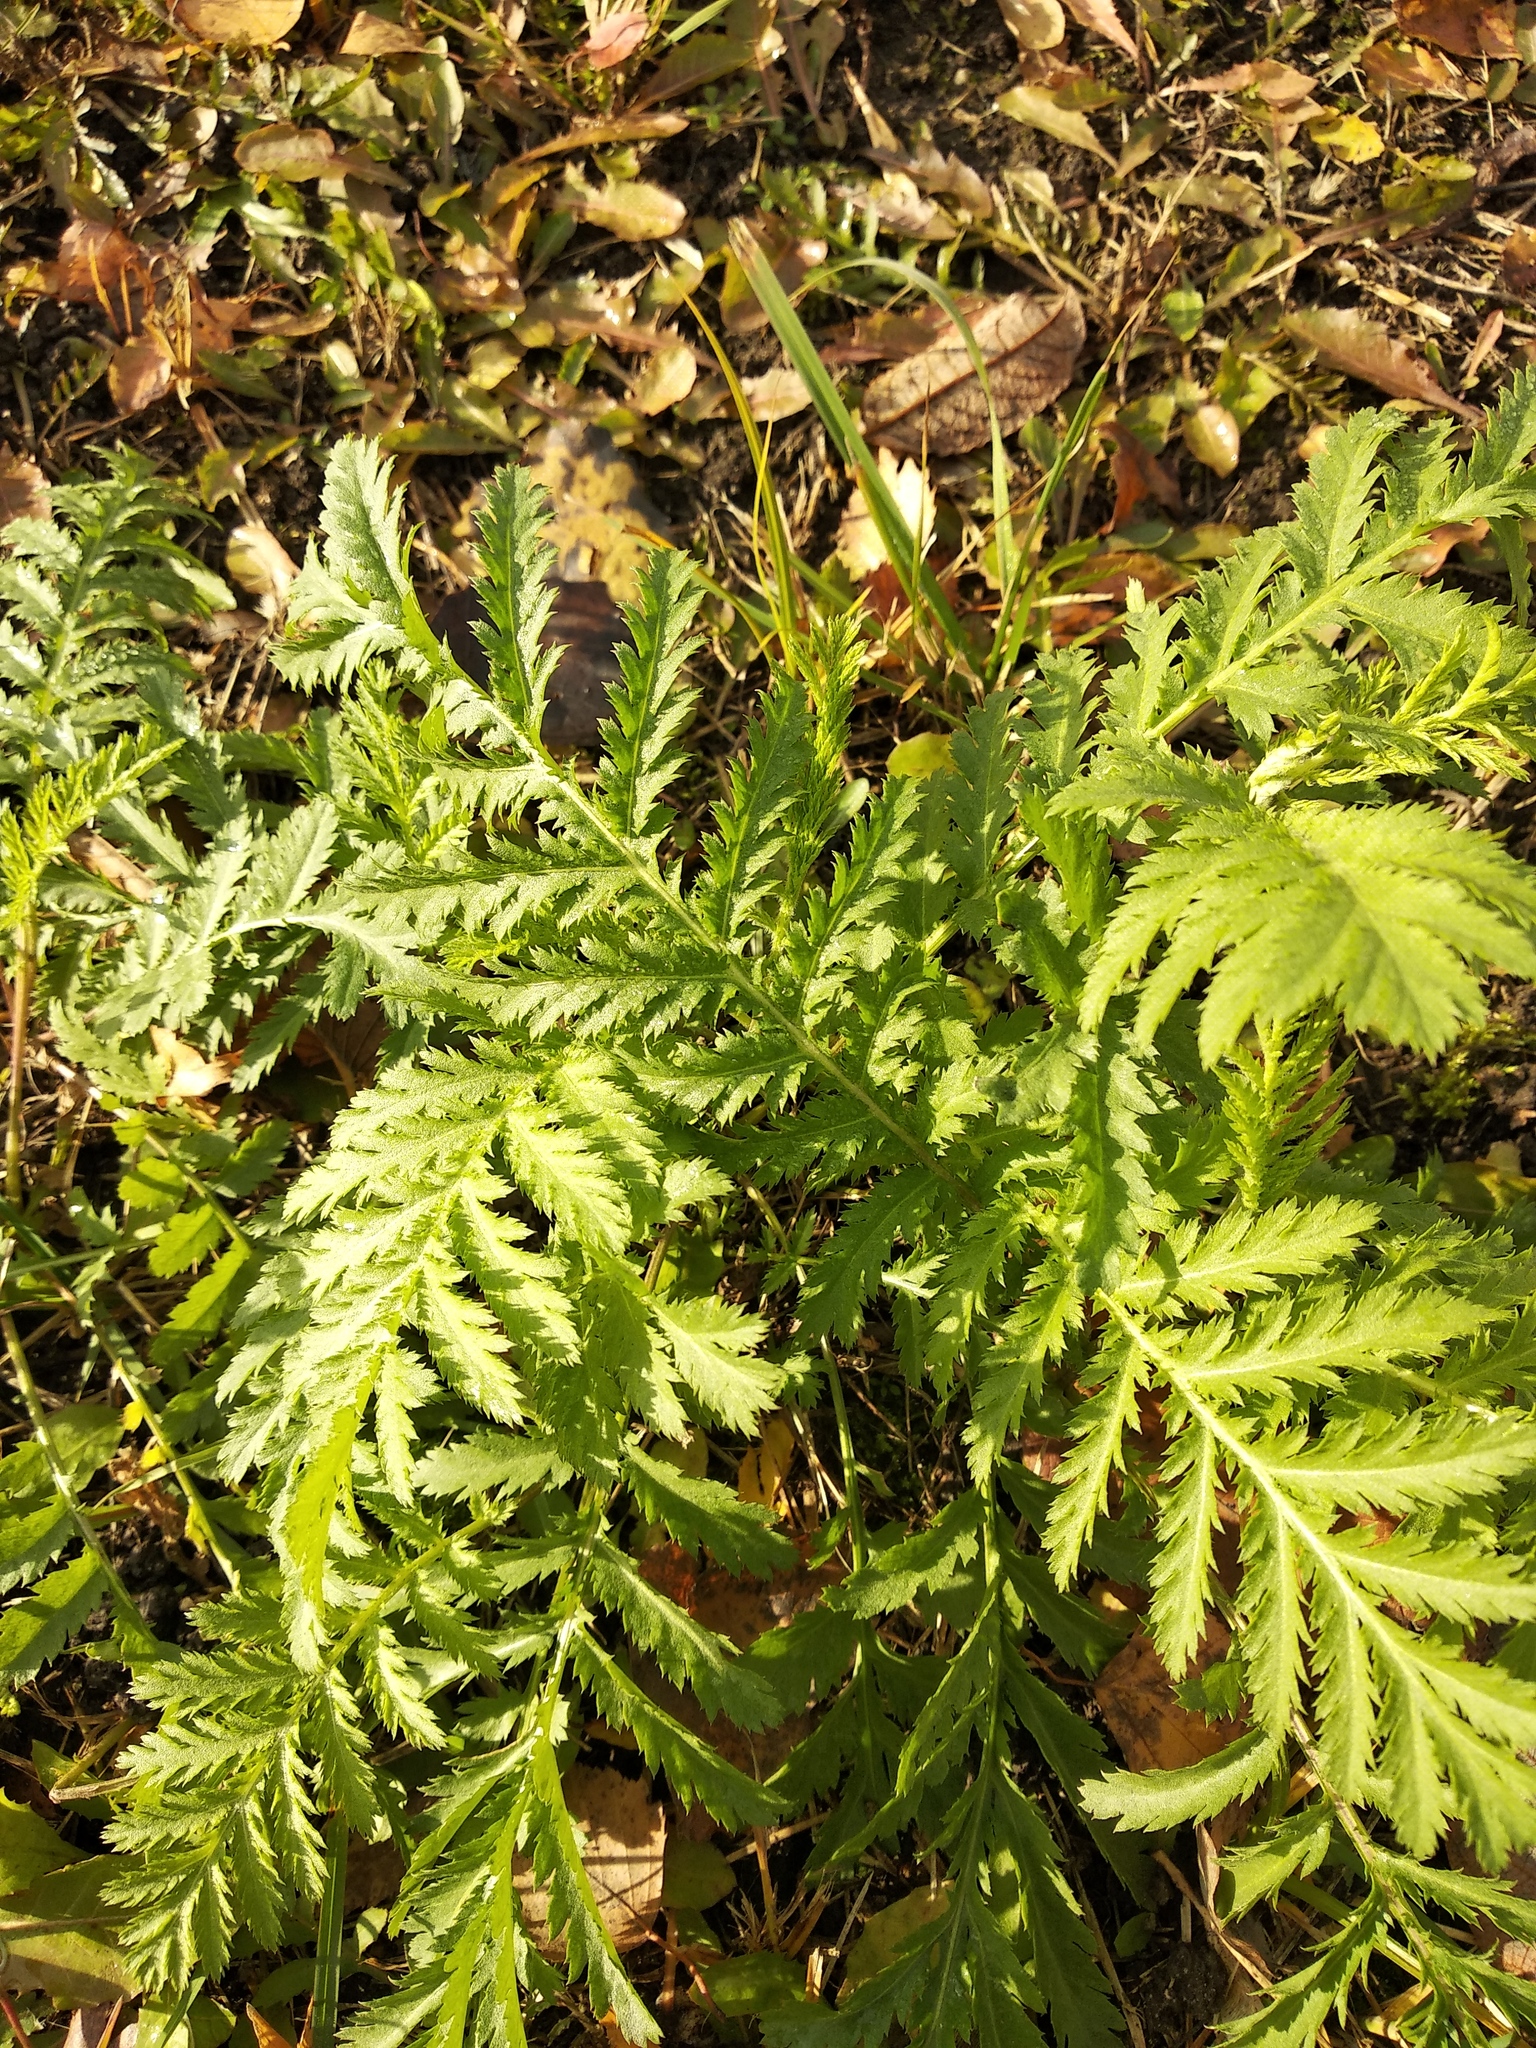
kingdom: Plantae
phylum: Tracheophyta
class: Magnoliopsida
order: Asterales
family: Asteraceae
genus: Tanacetum
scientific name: Tanacetum vulgare
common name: Common tansy
